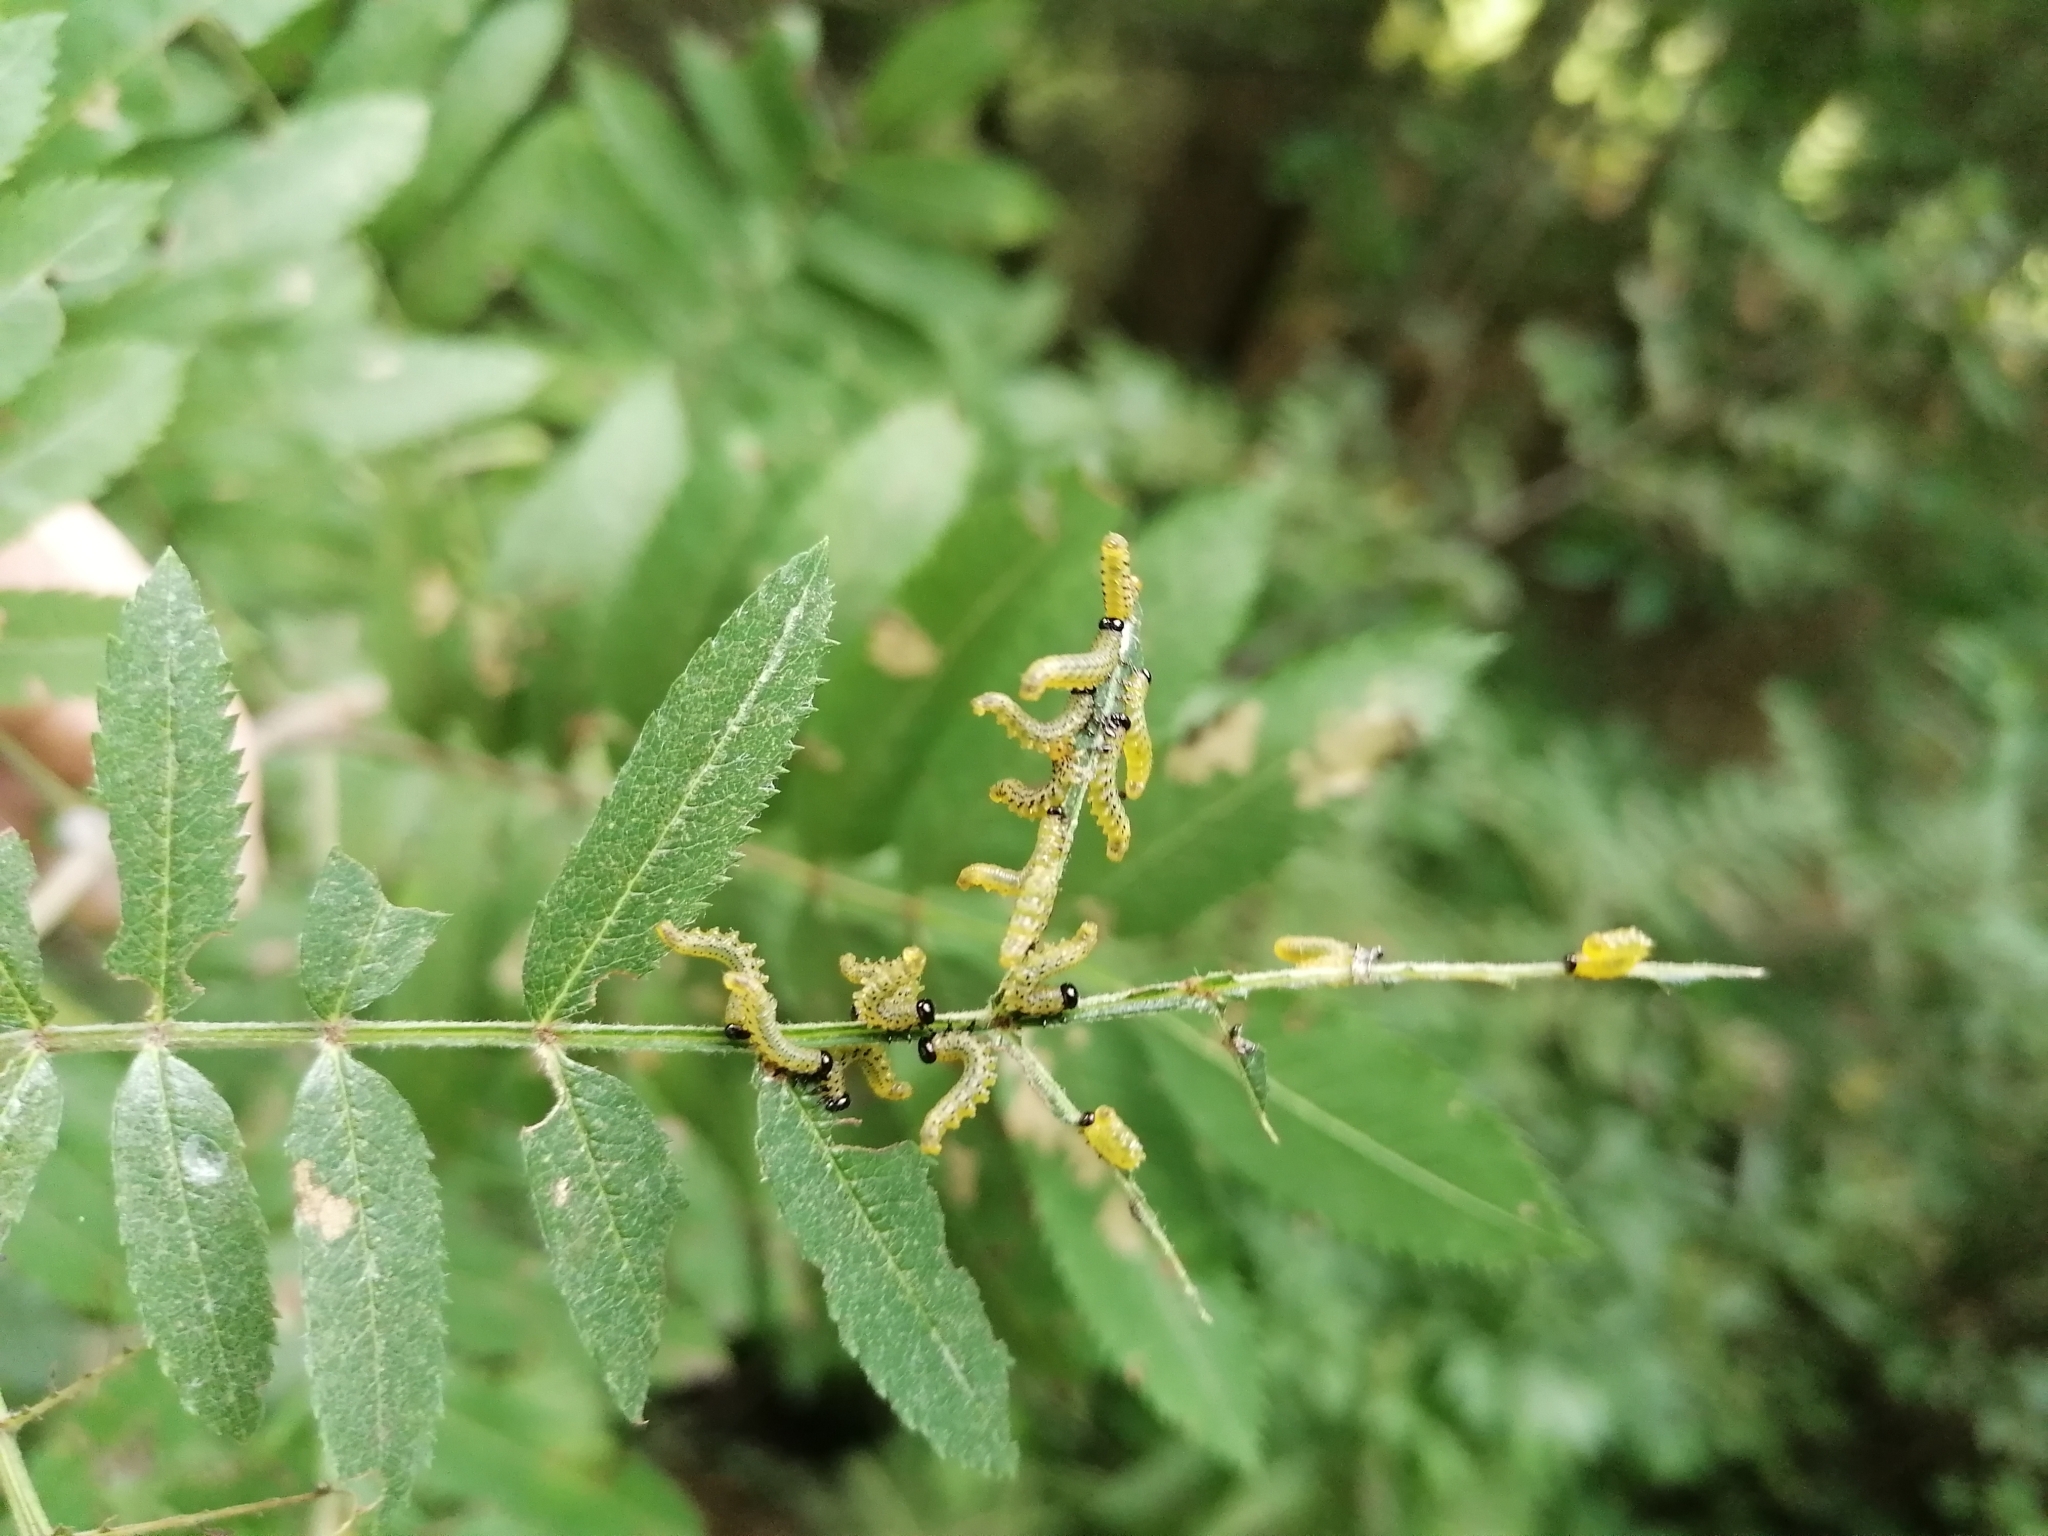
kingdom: Animalia
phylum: Arthropoda
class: Insecta
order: Hymenoptera
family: Tenthredinidae
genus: Pristiphora
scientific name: Pristiphora geniculata
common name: Mountain-ash sawfly
